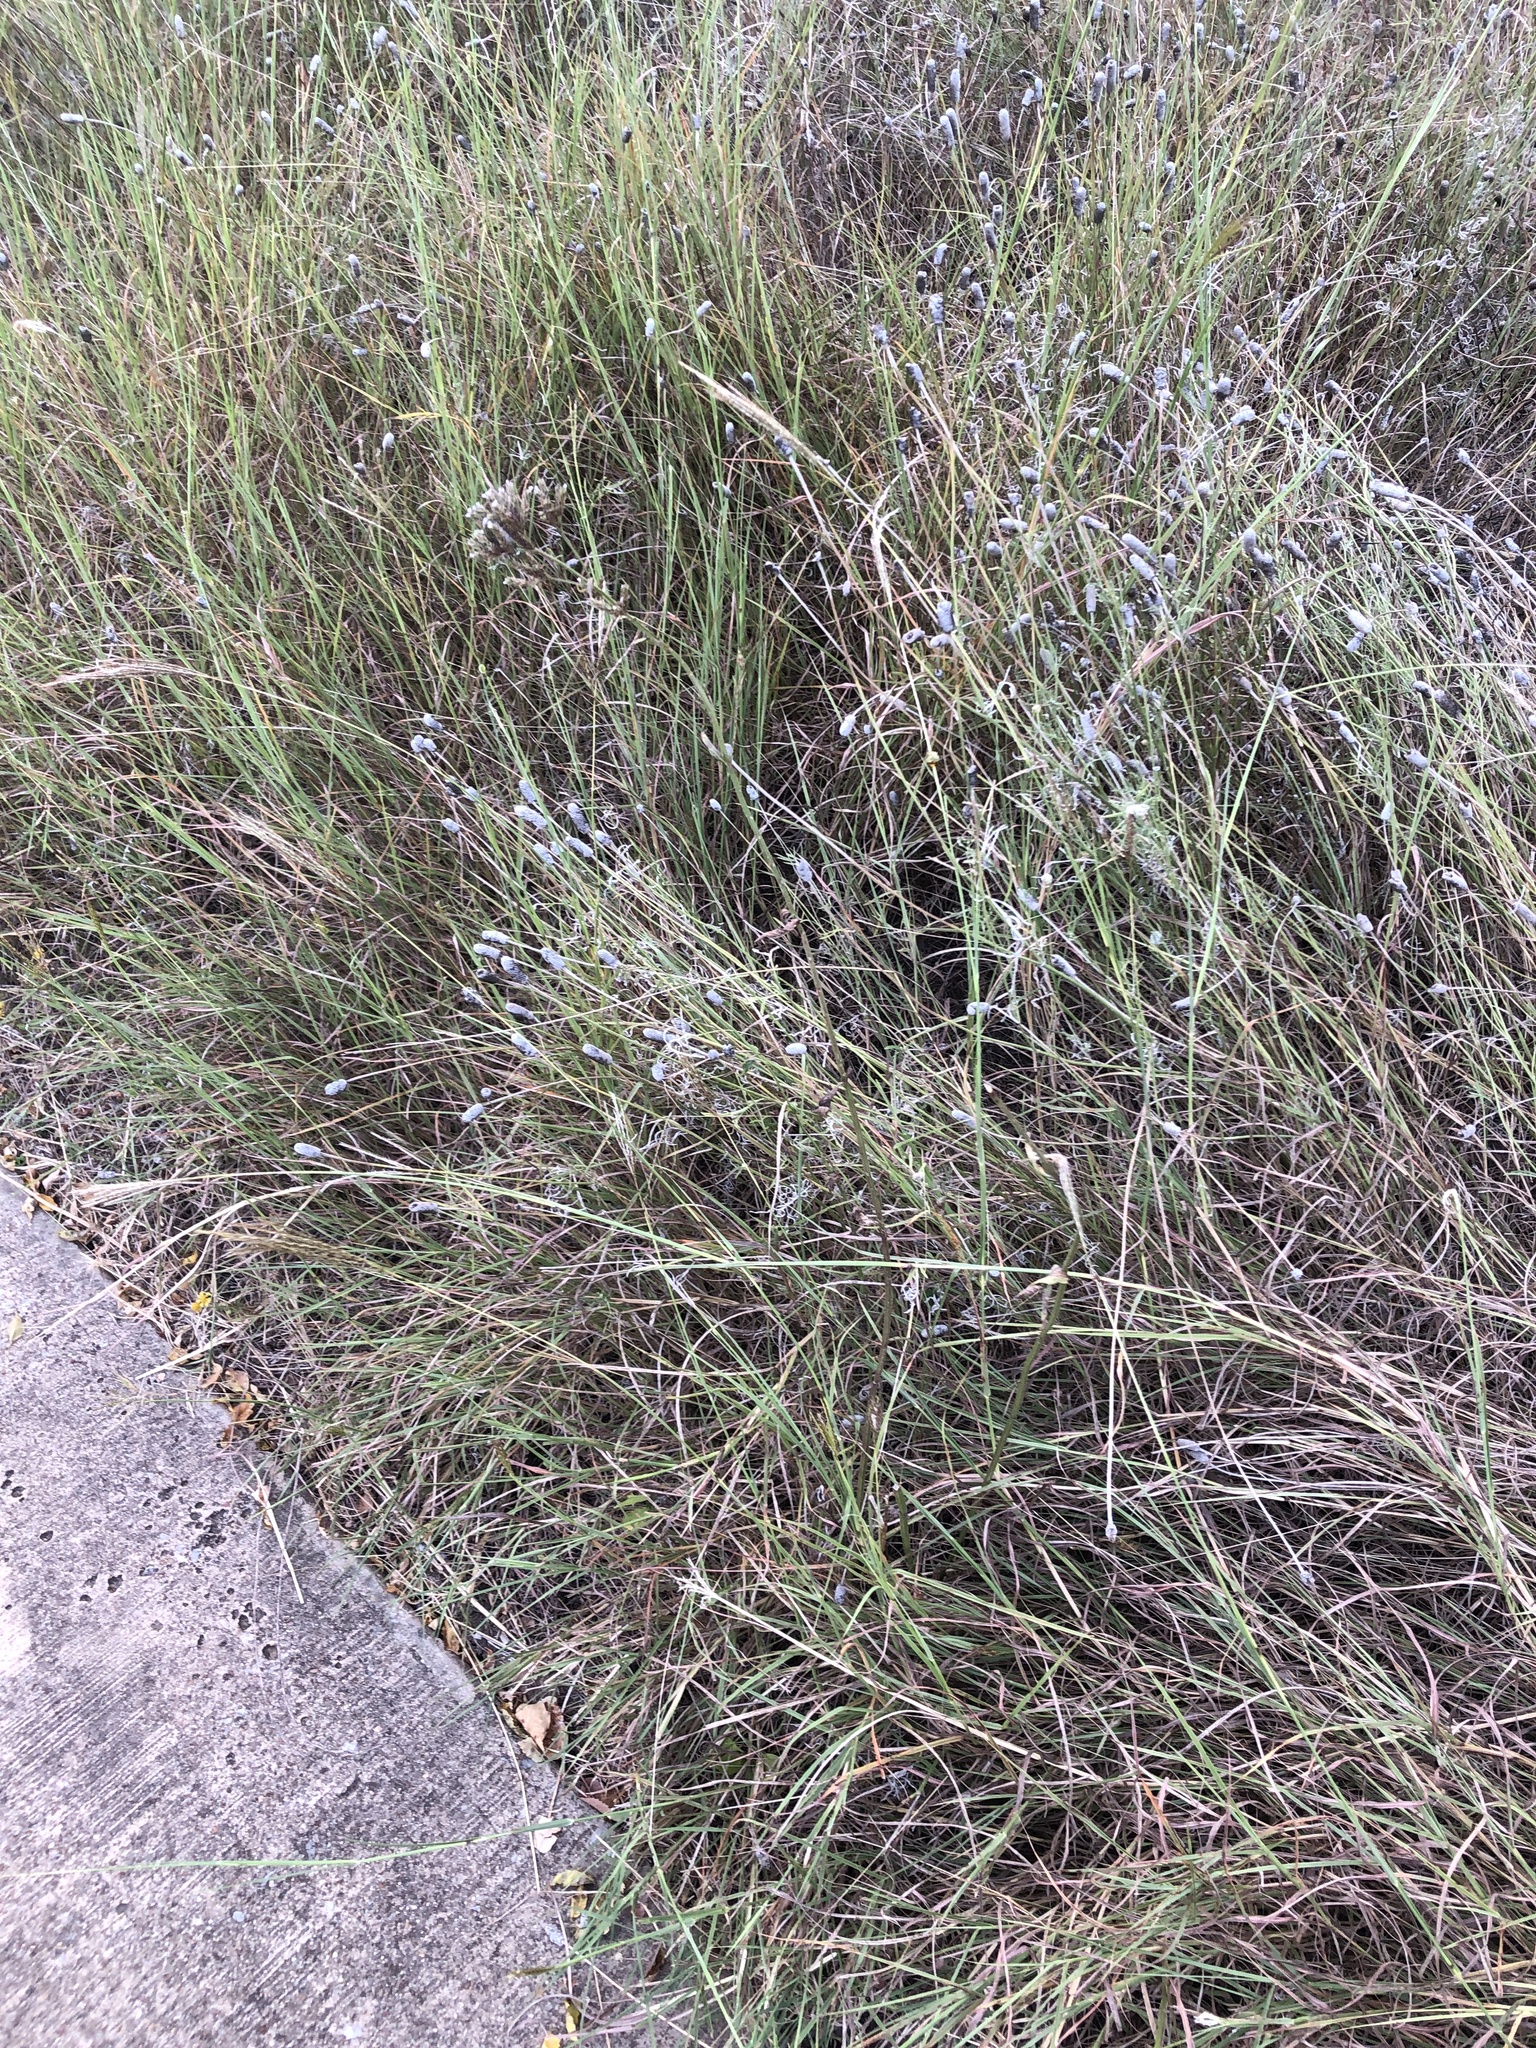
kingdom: Plantae
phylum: Tracheophyta
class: Magnoliopsida
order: Lamiales
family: Verbenaceae
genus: Verbena
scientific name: Verbena brasiliensis
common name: Brazilian vervain
